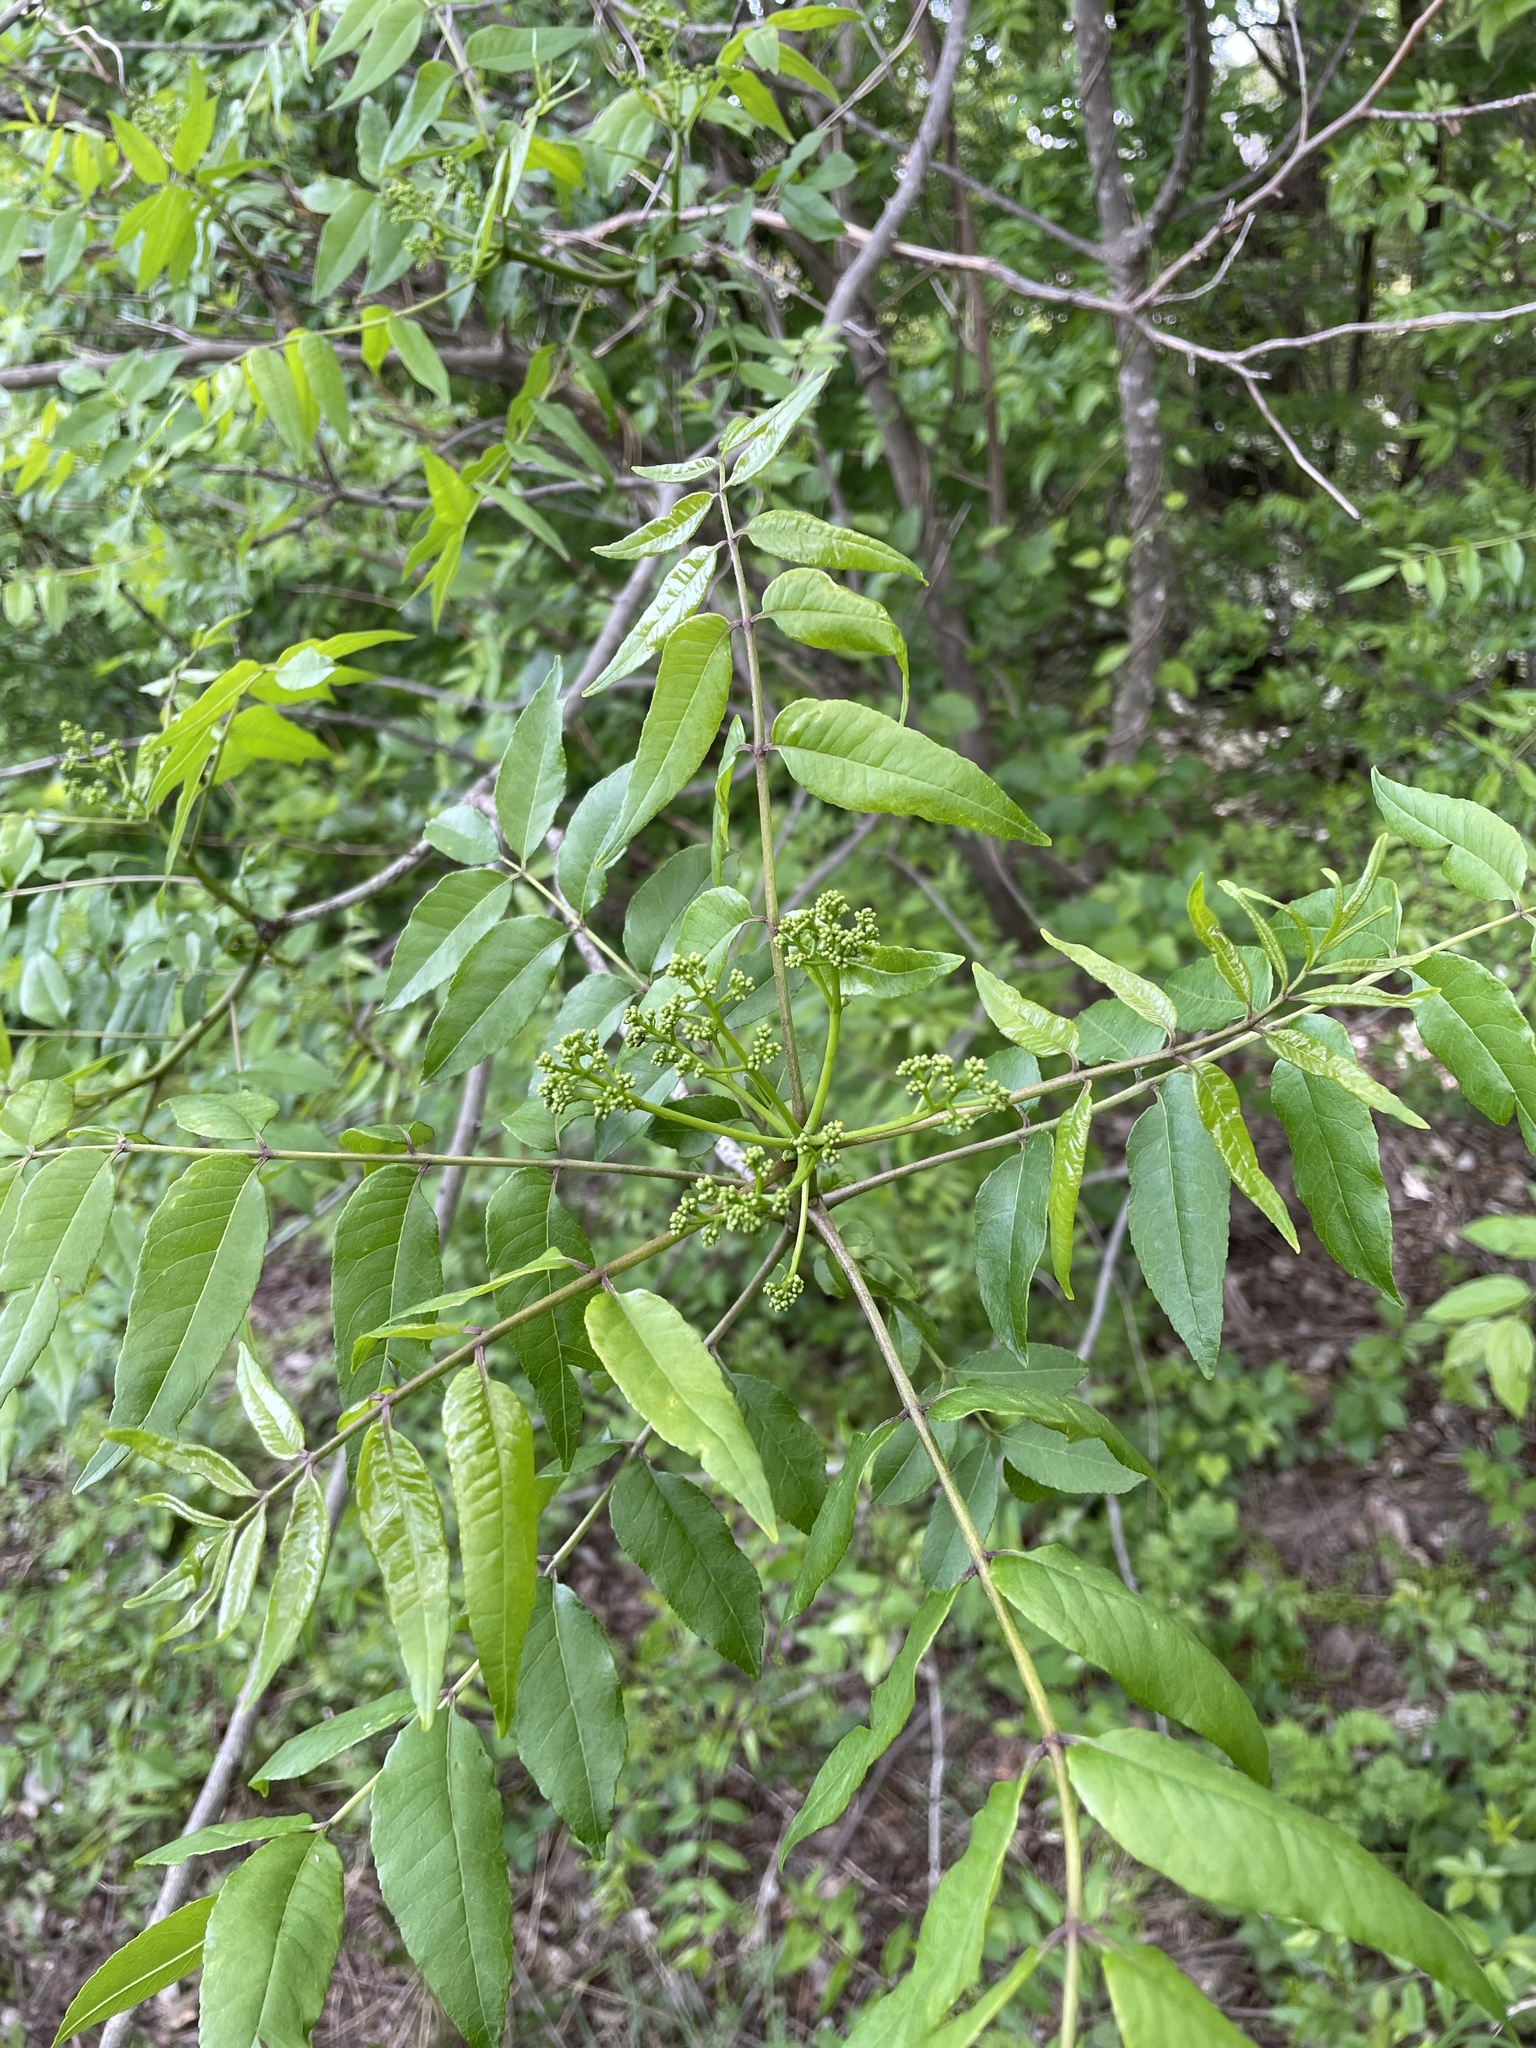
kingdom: Plantae
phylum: Tracheophyta
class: Magnoliopsida
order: Sapindales
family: Rutaceae
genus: Zanthoxylum
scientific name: Zanthoxylum clava-herculis
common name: Hercules'-club
